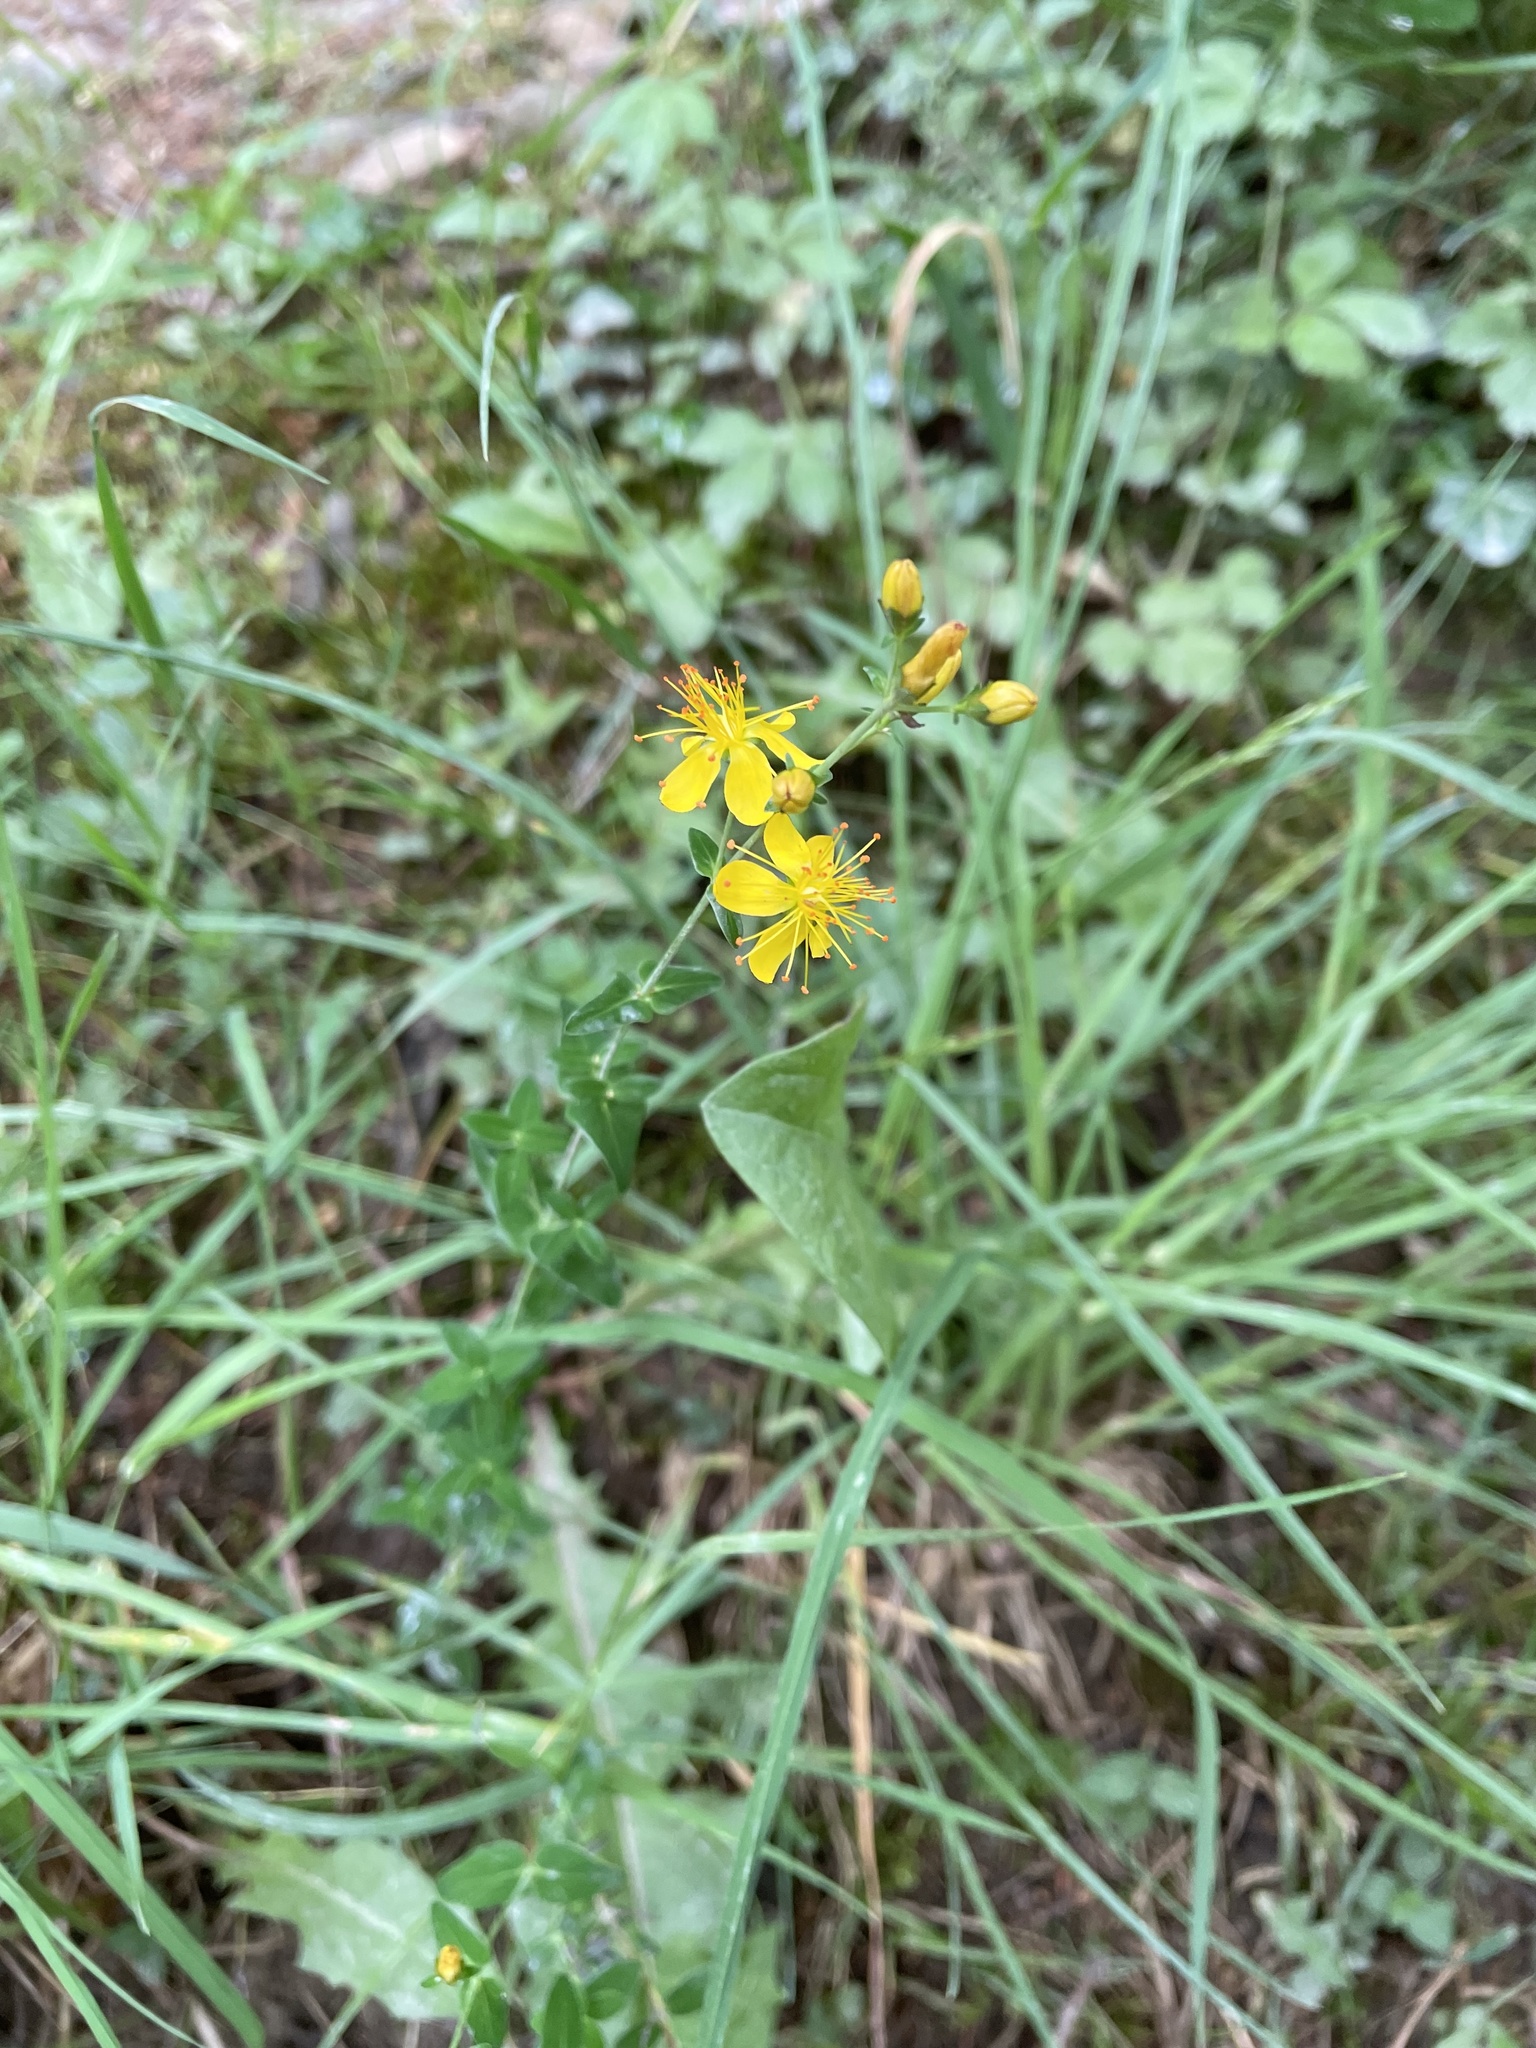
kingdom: Plantae
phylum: Tracheophyta
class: Magnoliopsida
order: Malpighiales
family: Hypericaceae
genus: Hypericum
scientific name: Hypericum pulchrum
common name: Slender st. john's-wort
